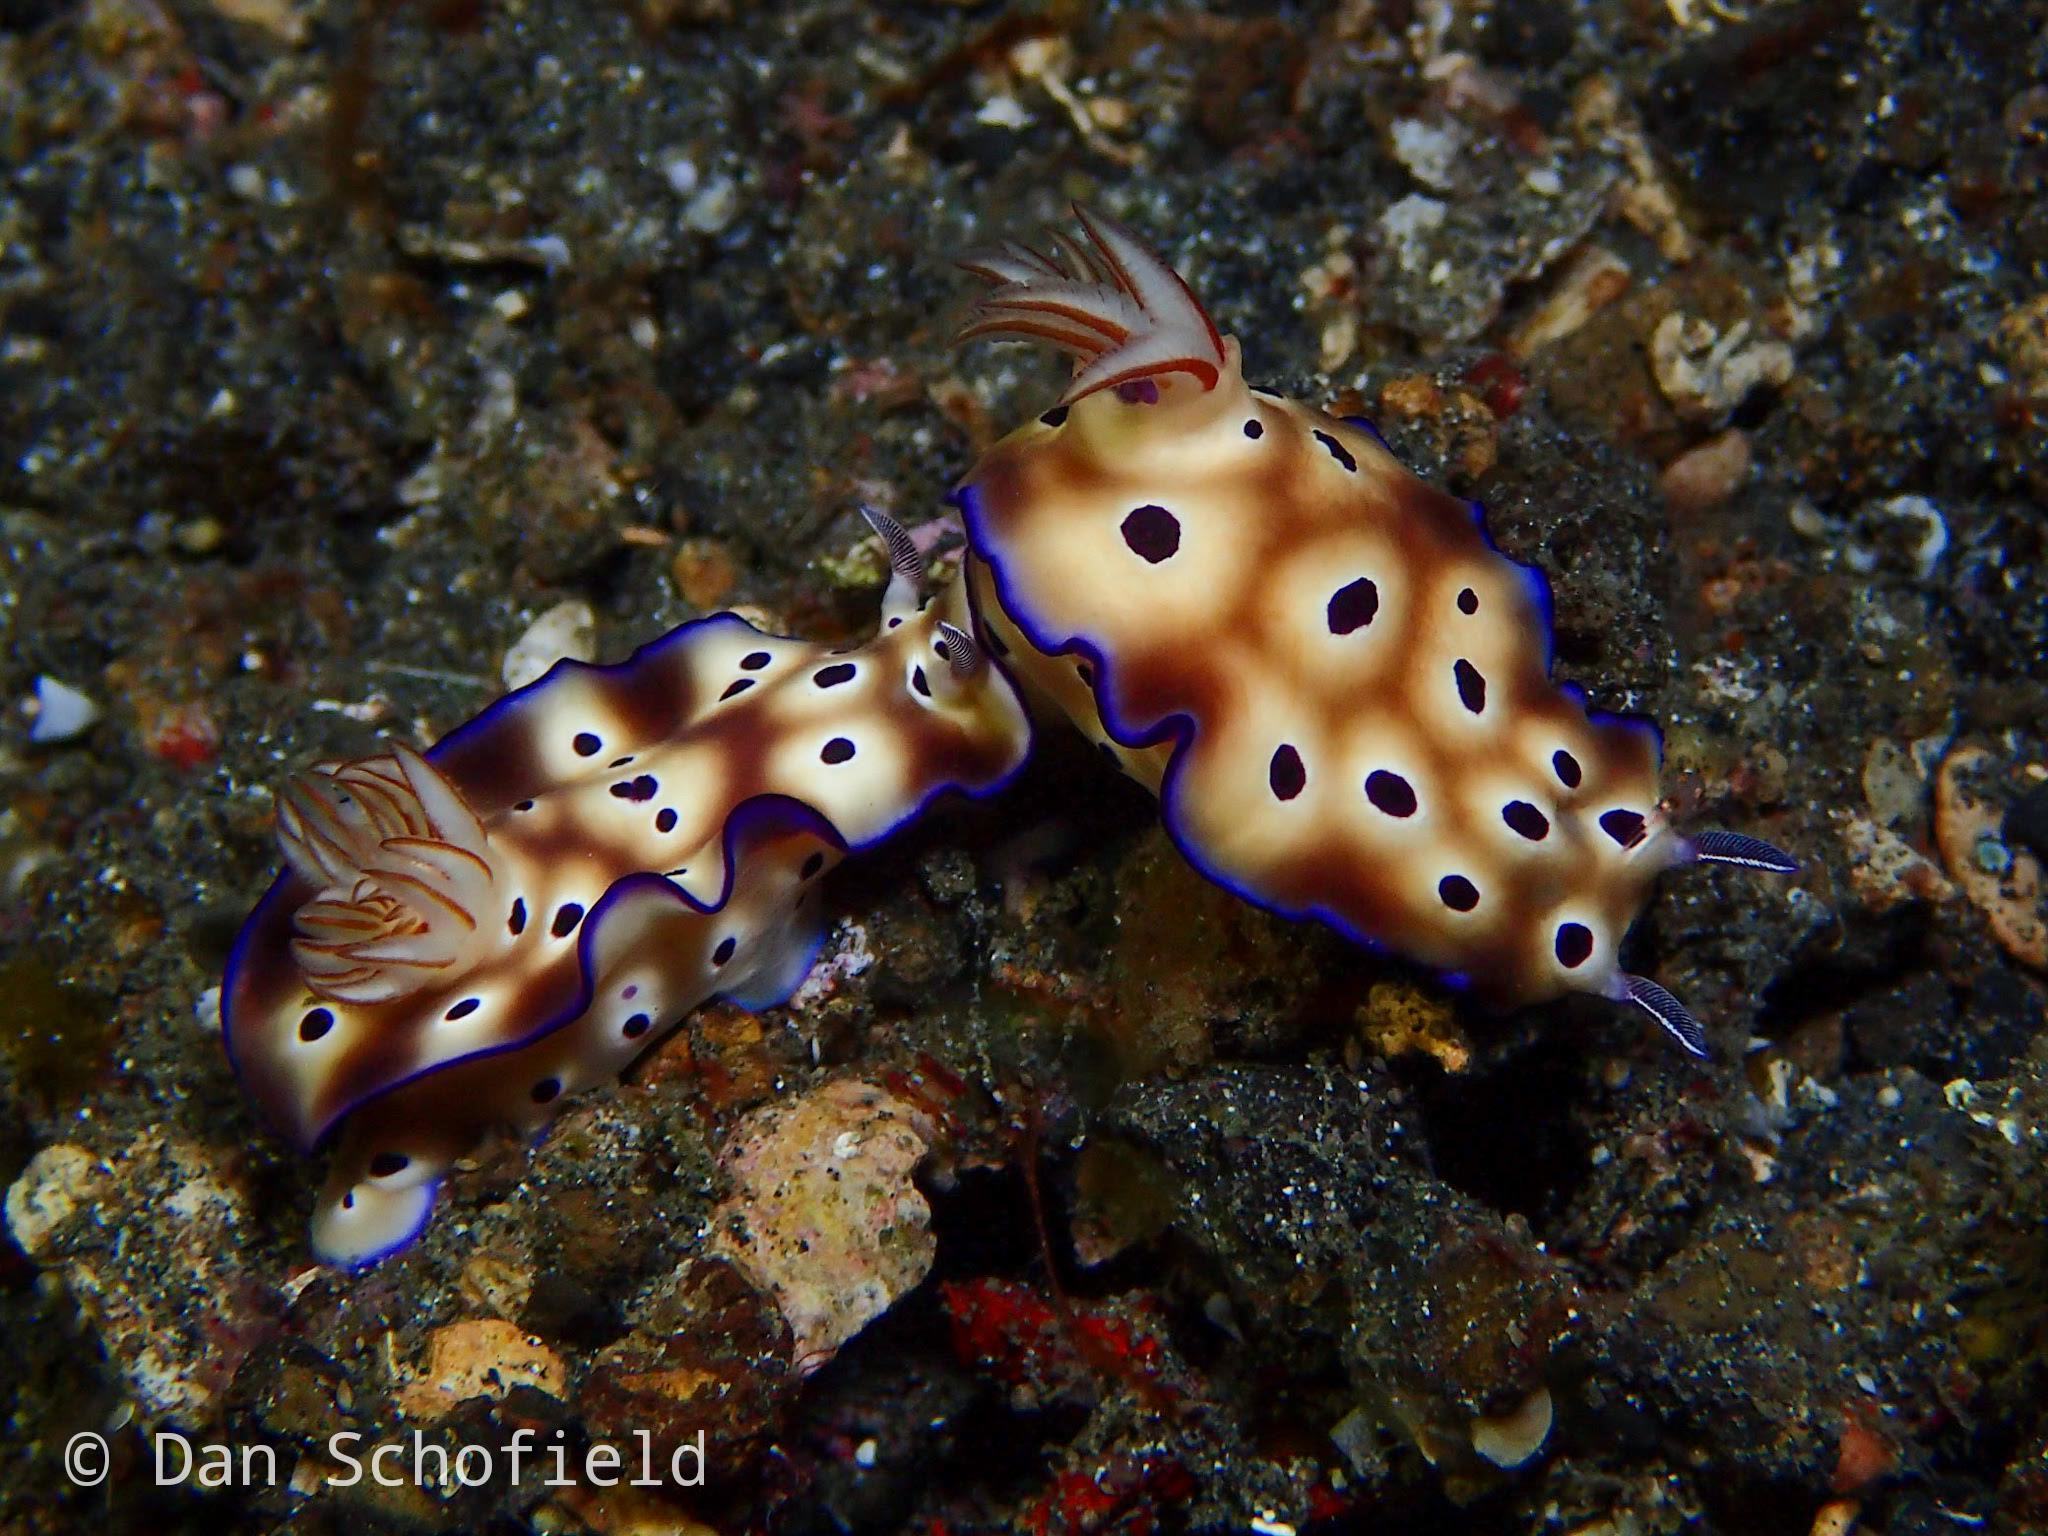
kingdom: Animalia
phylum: Mollusca
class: Gastropoda
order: Nudibranchia
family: Chromodorididae
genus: Hypselodoris
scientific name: Hypselodoris tryoni
